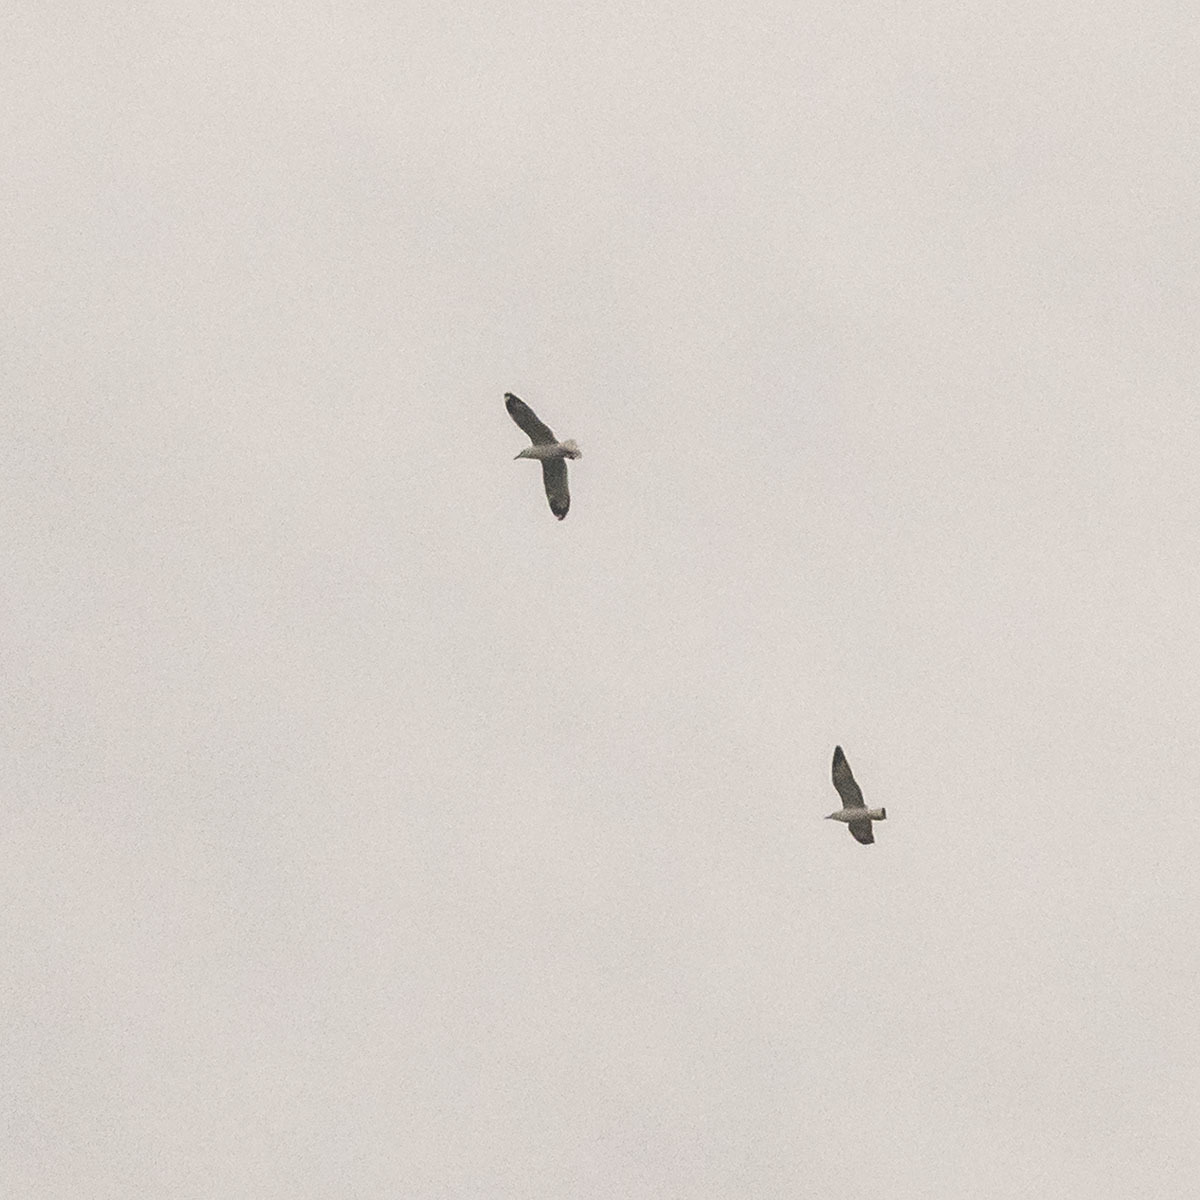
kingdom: Animalia
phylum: Chordata
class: Aves
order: Charadriiformes
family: Laridae
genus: Larus
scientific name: Larus fuscus
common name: Lesser black-backed gull
